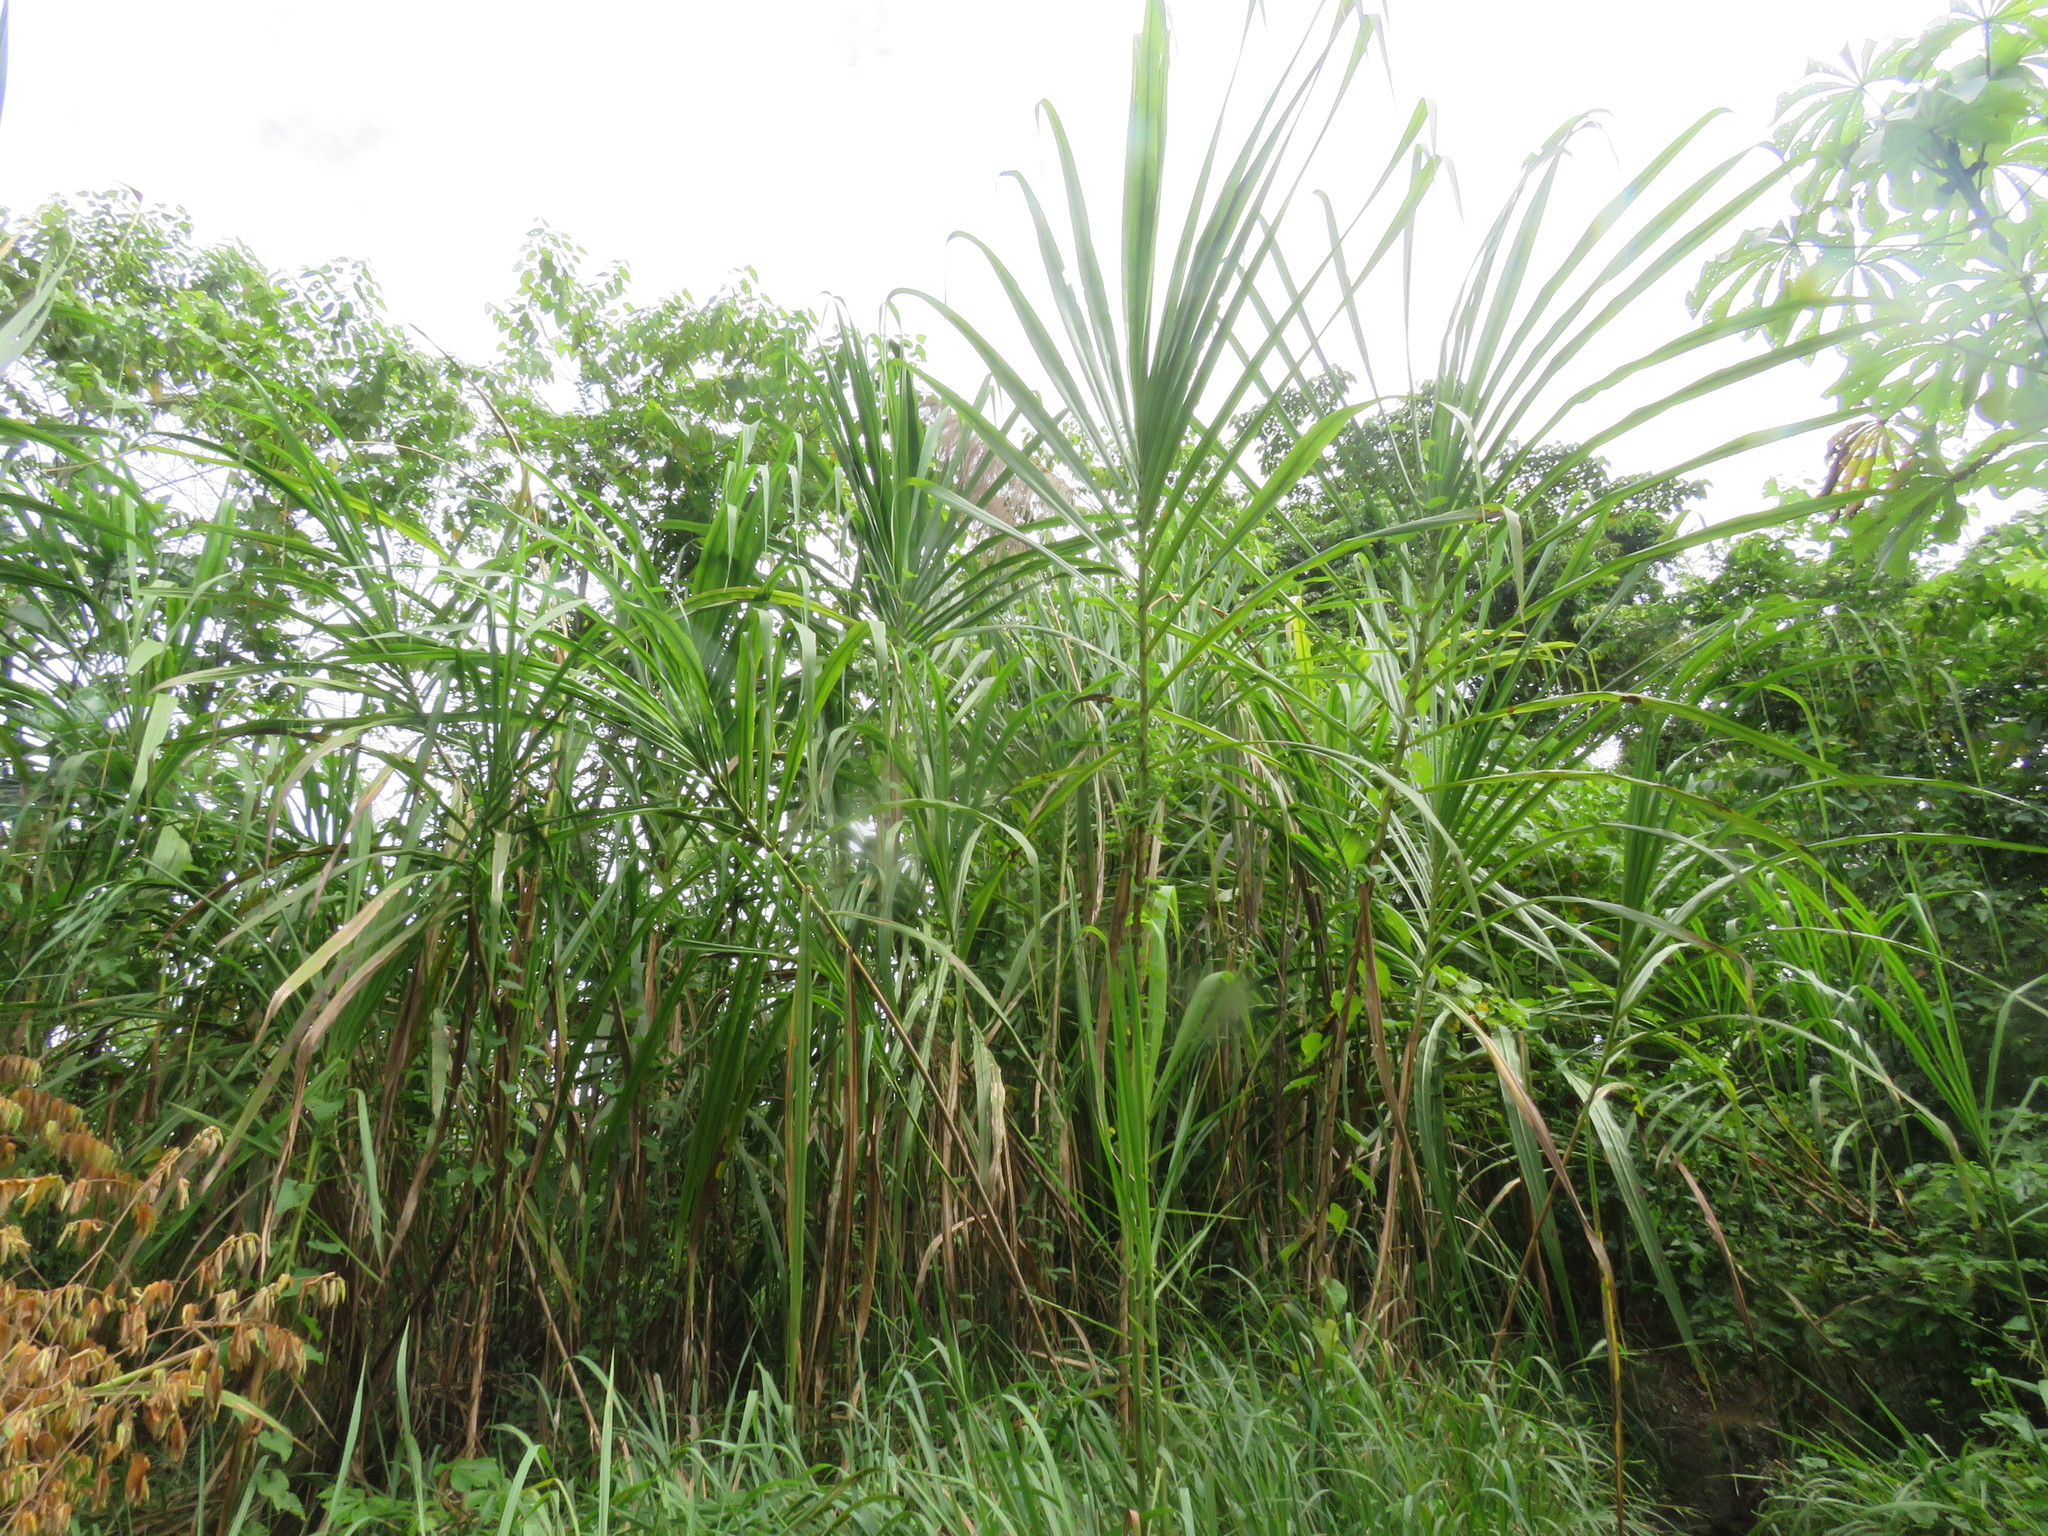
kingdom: Plantae
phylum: Tracheophyta
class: Liliopsida
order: Poales
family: Poaceae
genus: Gynerium
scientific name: Gynerium sagittatum
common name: Wild cane
